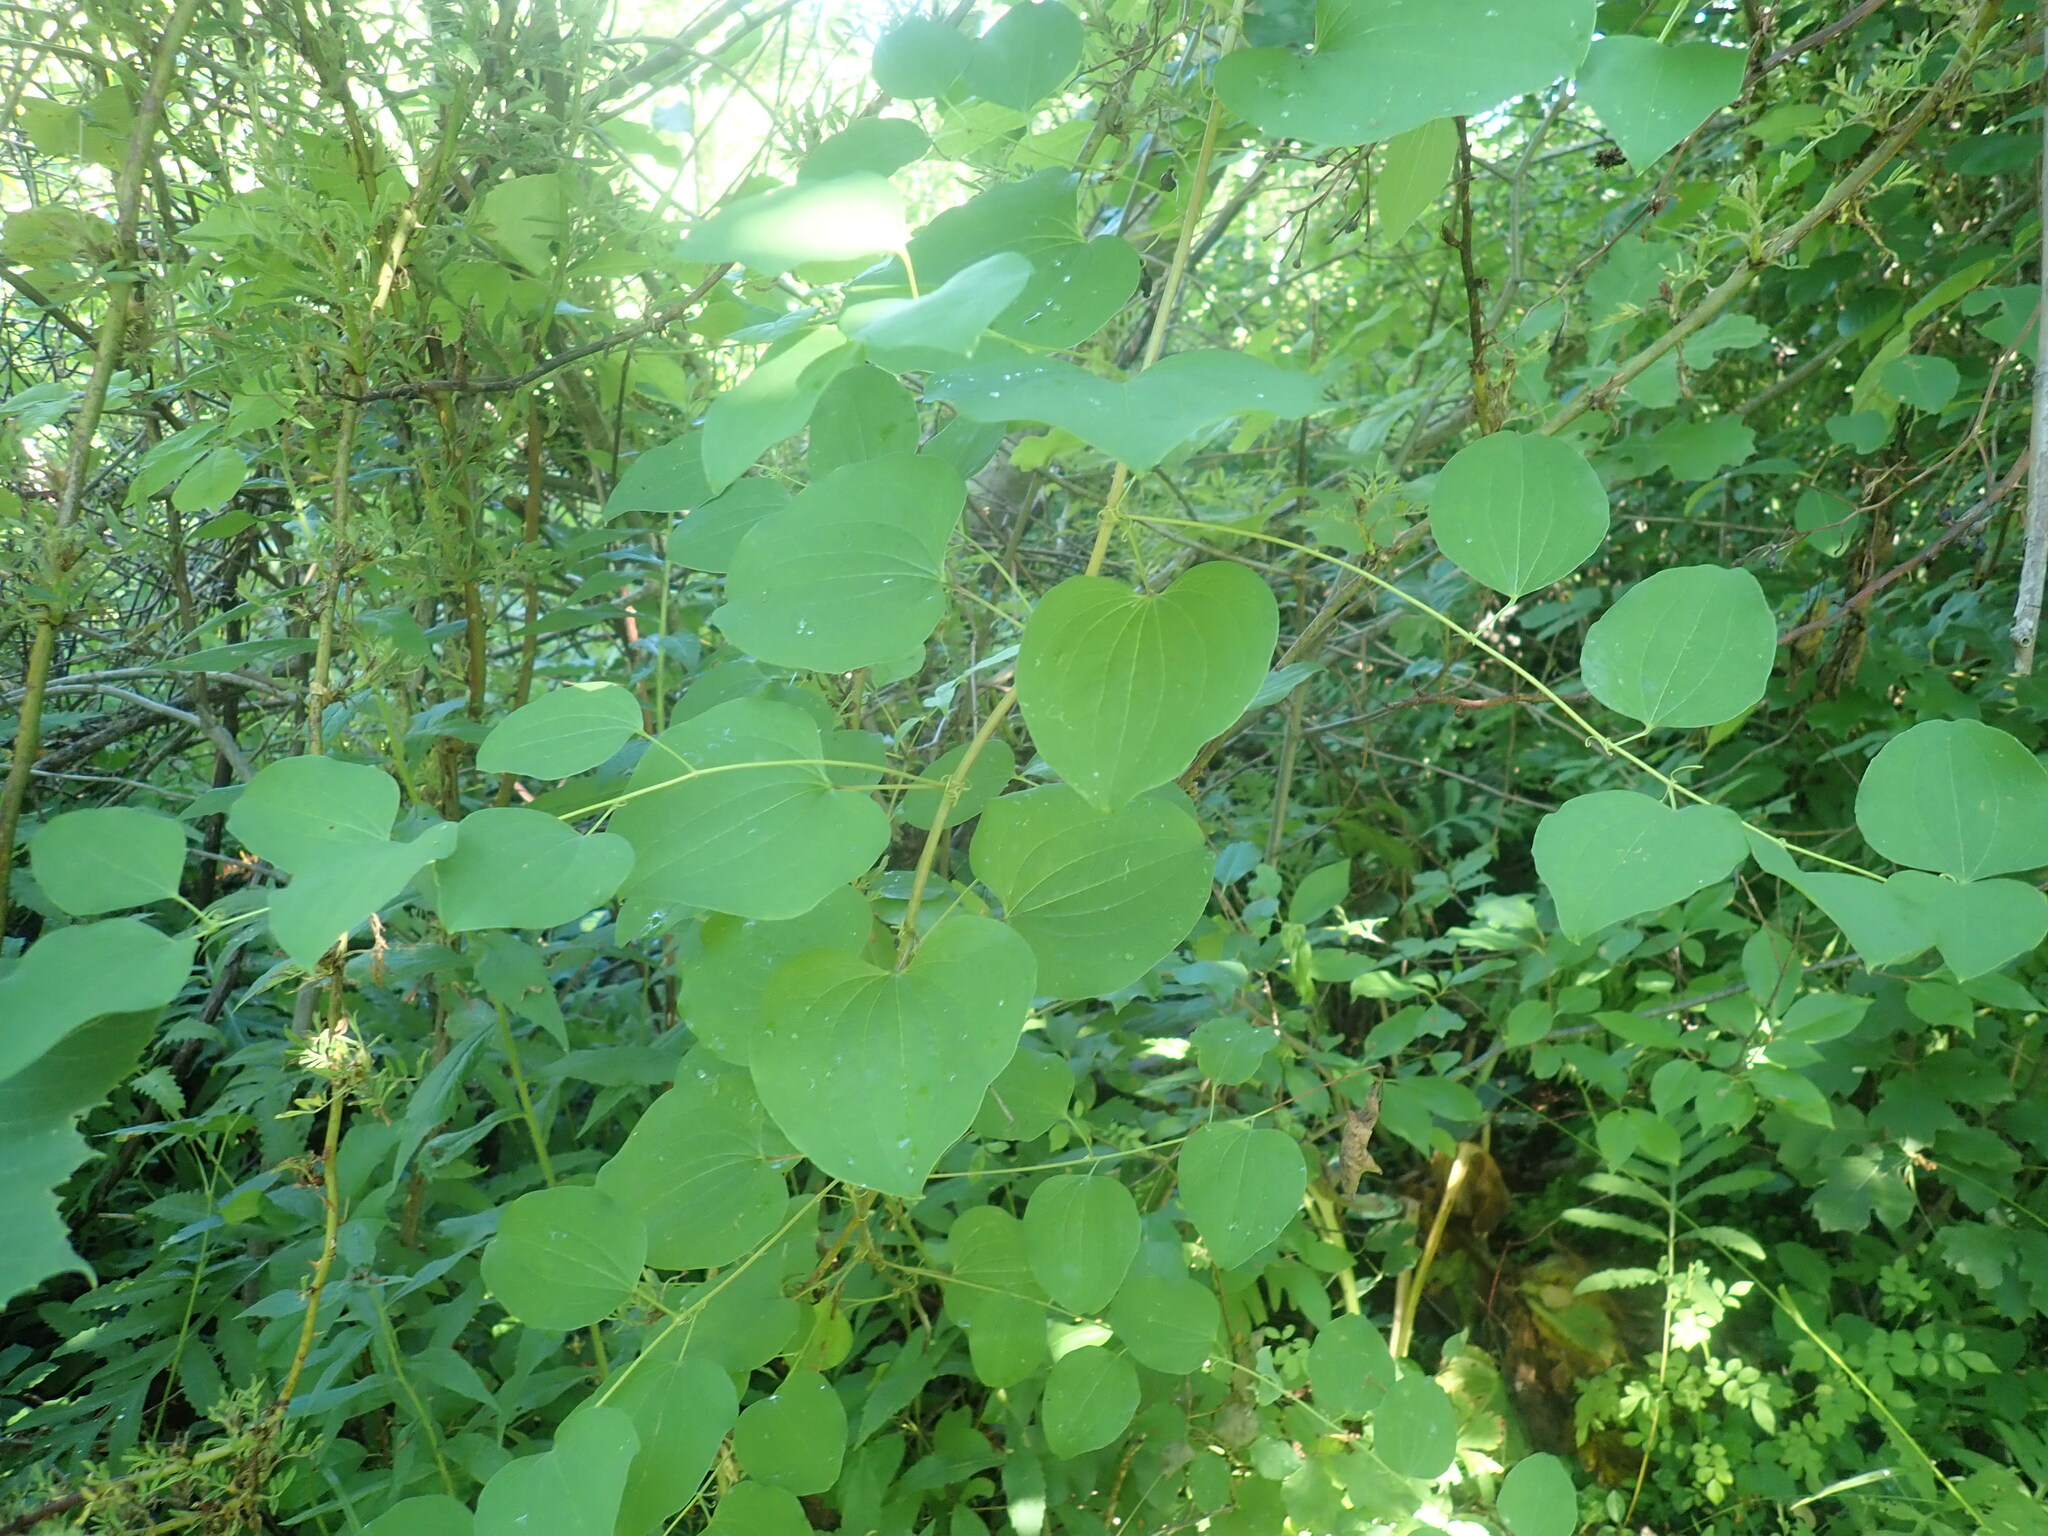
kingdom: Plantae
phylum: Tracheophyta
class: Liliopsida
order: Liliales
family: Smilacaceae
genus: Smilax
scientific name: Smilax herbacea
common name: Jacob's-ladder
